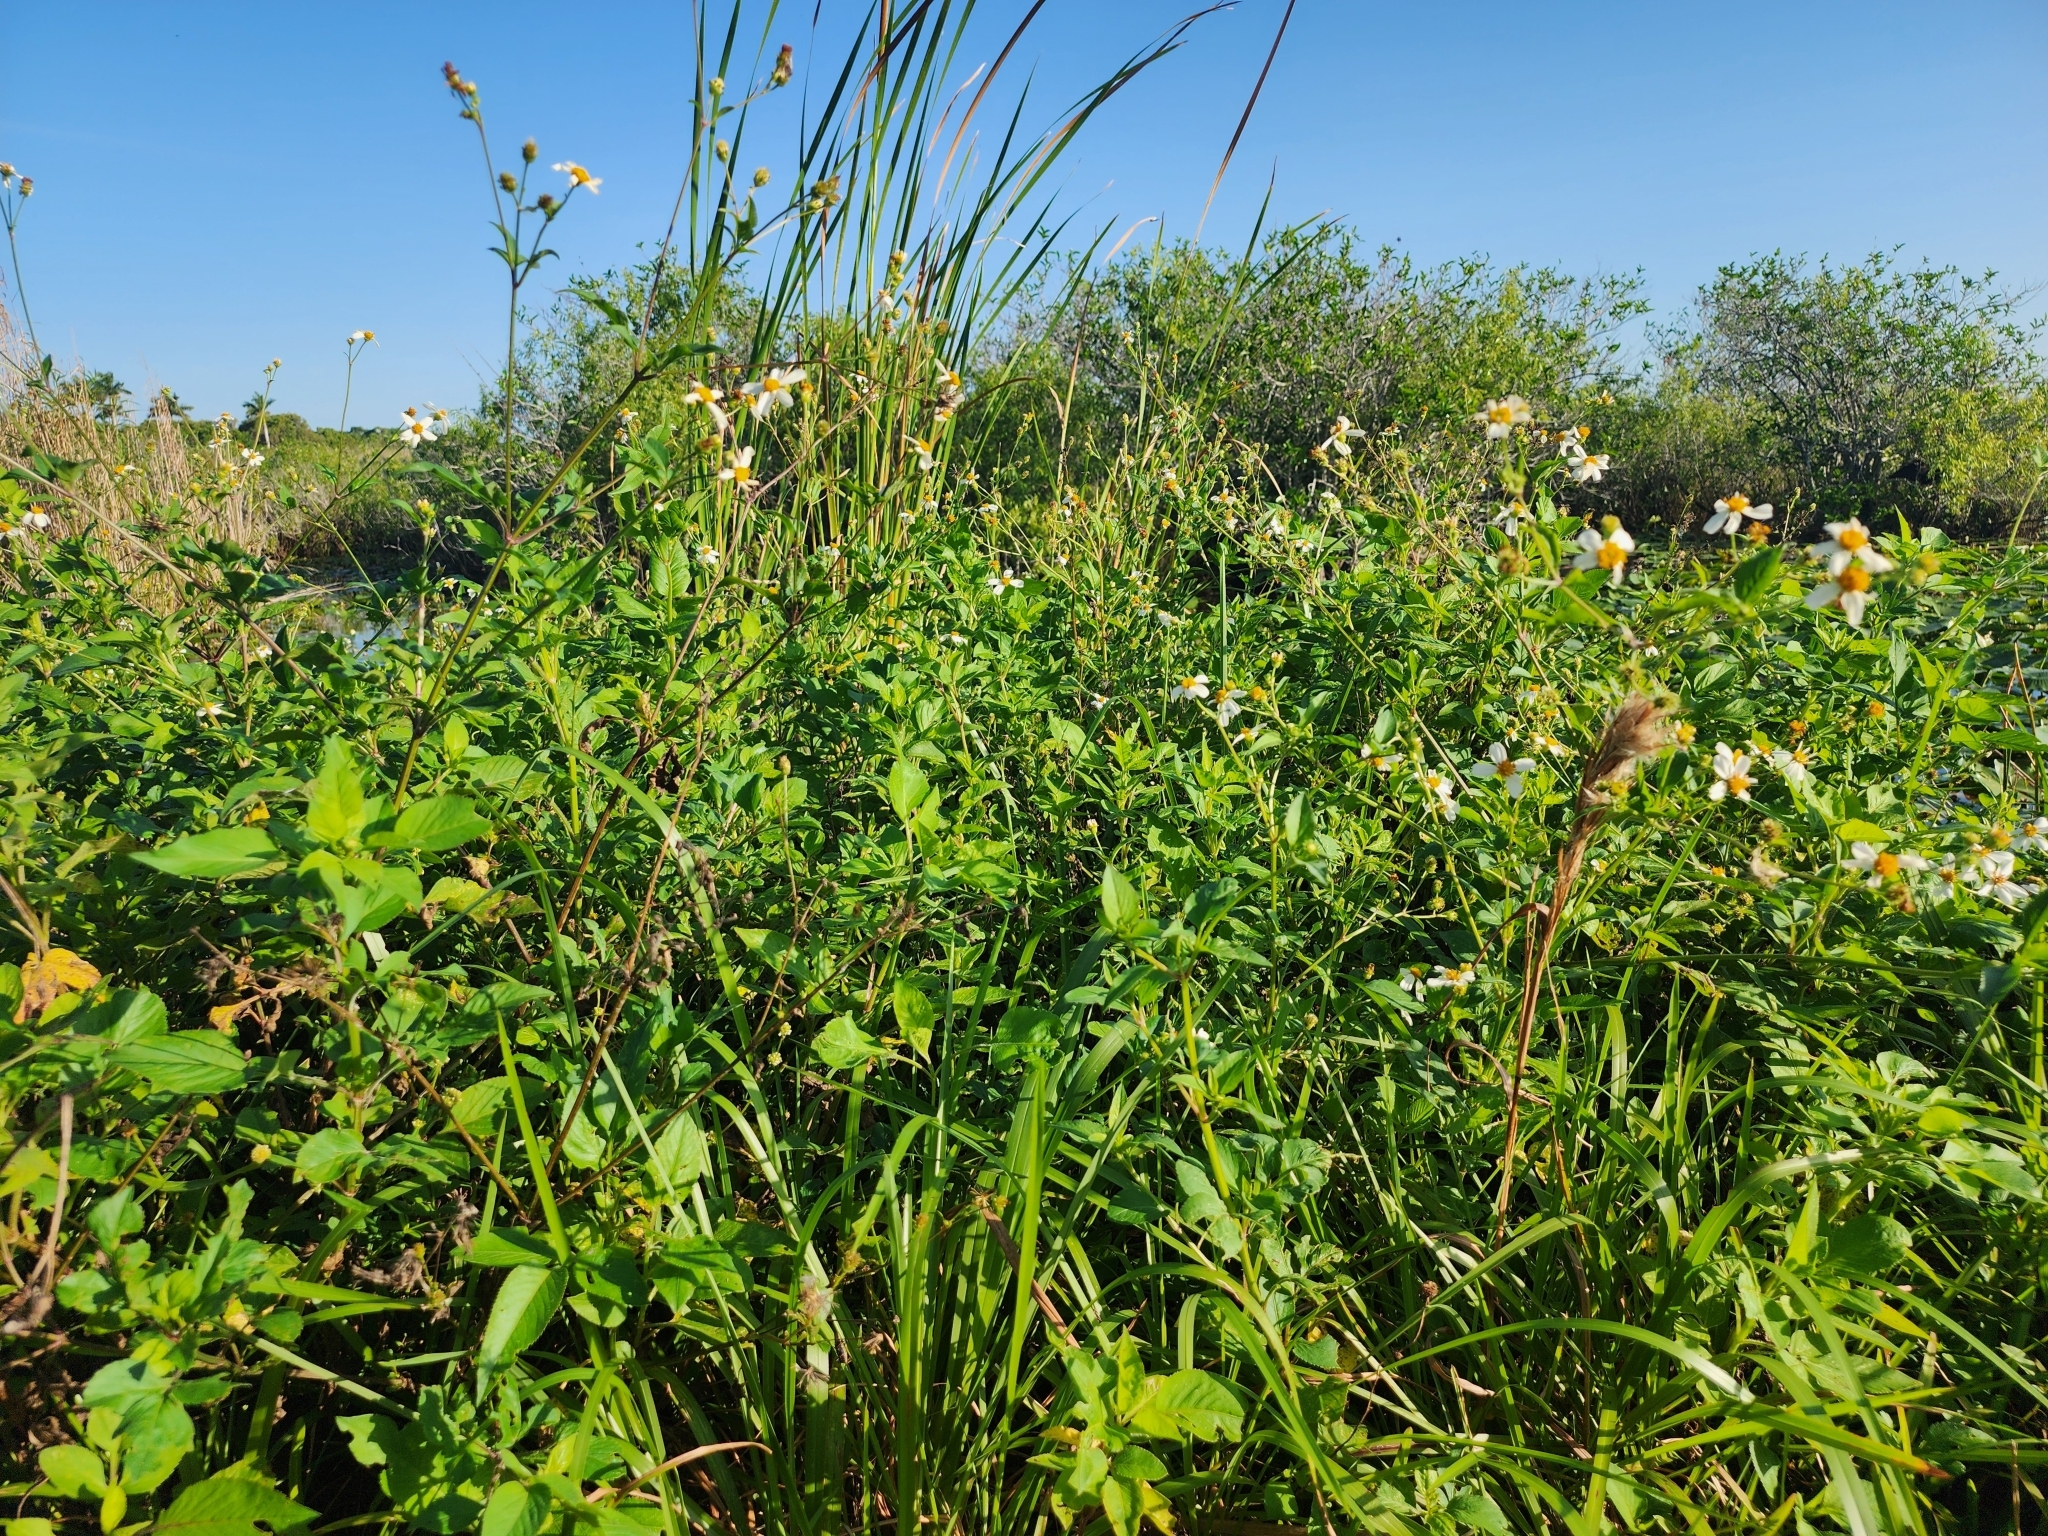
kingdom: Plantae
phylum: Tracheophyta
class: Magnoliopsida
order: Asterales
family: Asteraceae
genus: Bidens
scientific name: Bidens alba
